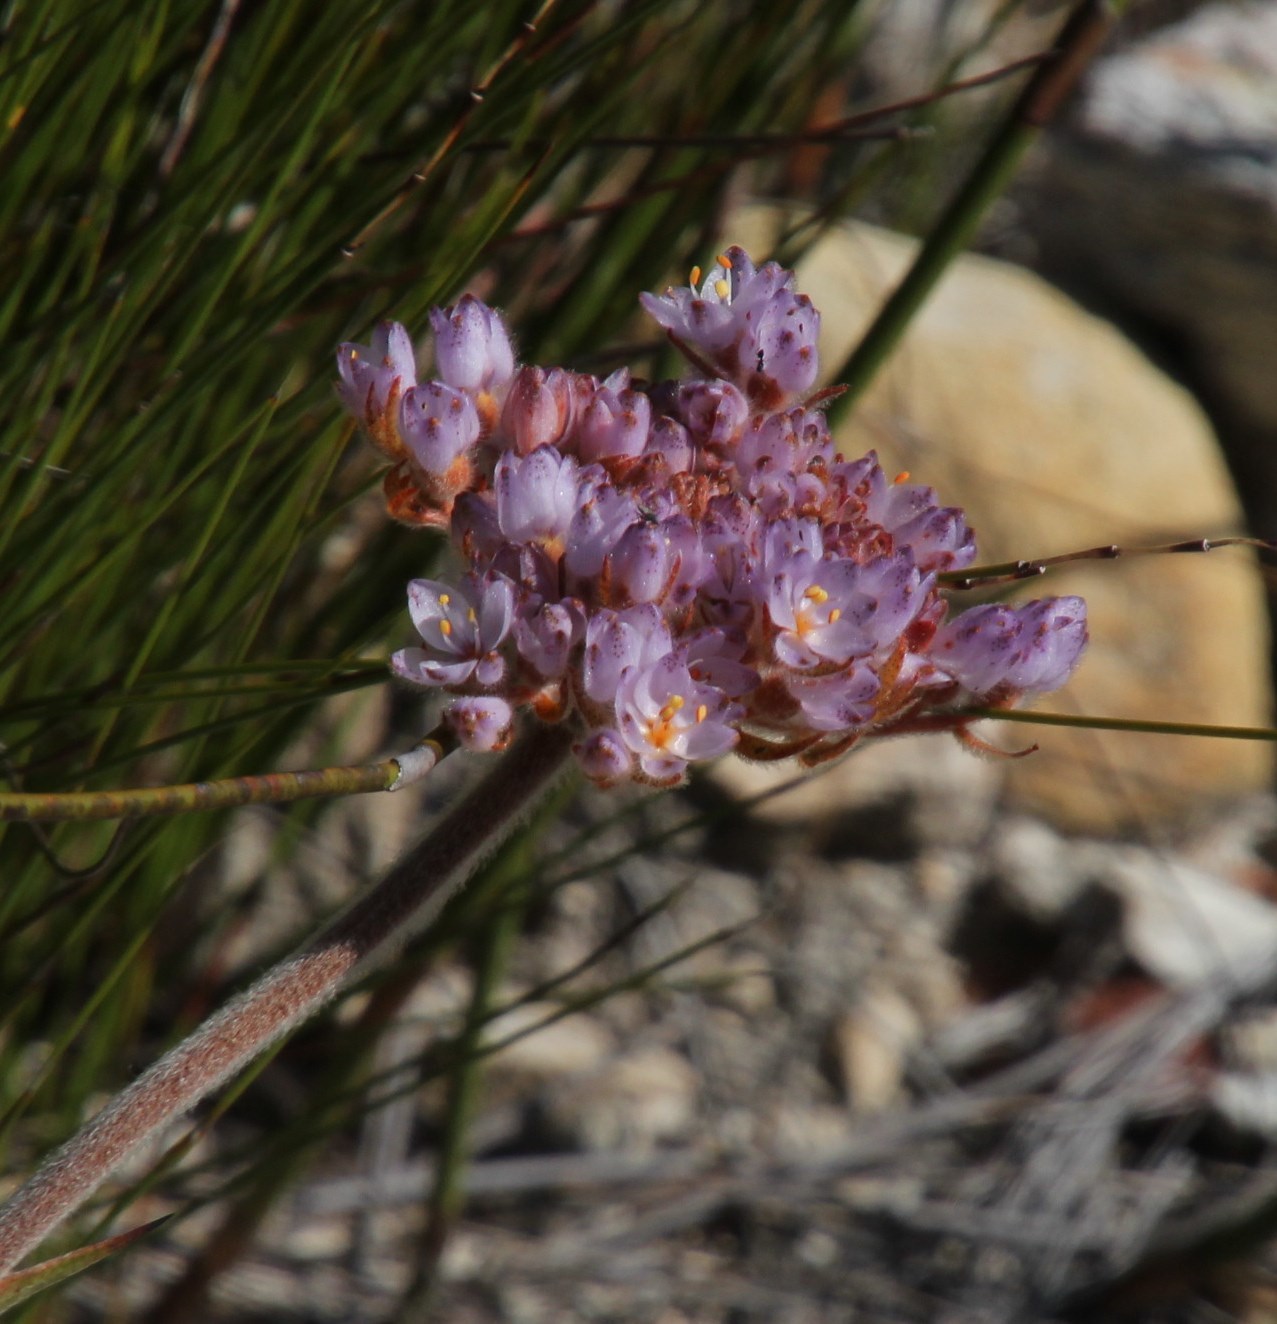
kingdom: Plantae
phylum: Tracheophyta
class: Liliopsida
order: Commelinales
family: Haemodoraceae
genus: Dilatris
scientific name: Dilatris pillansii
